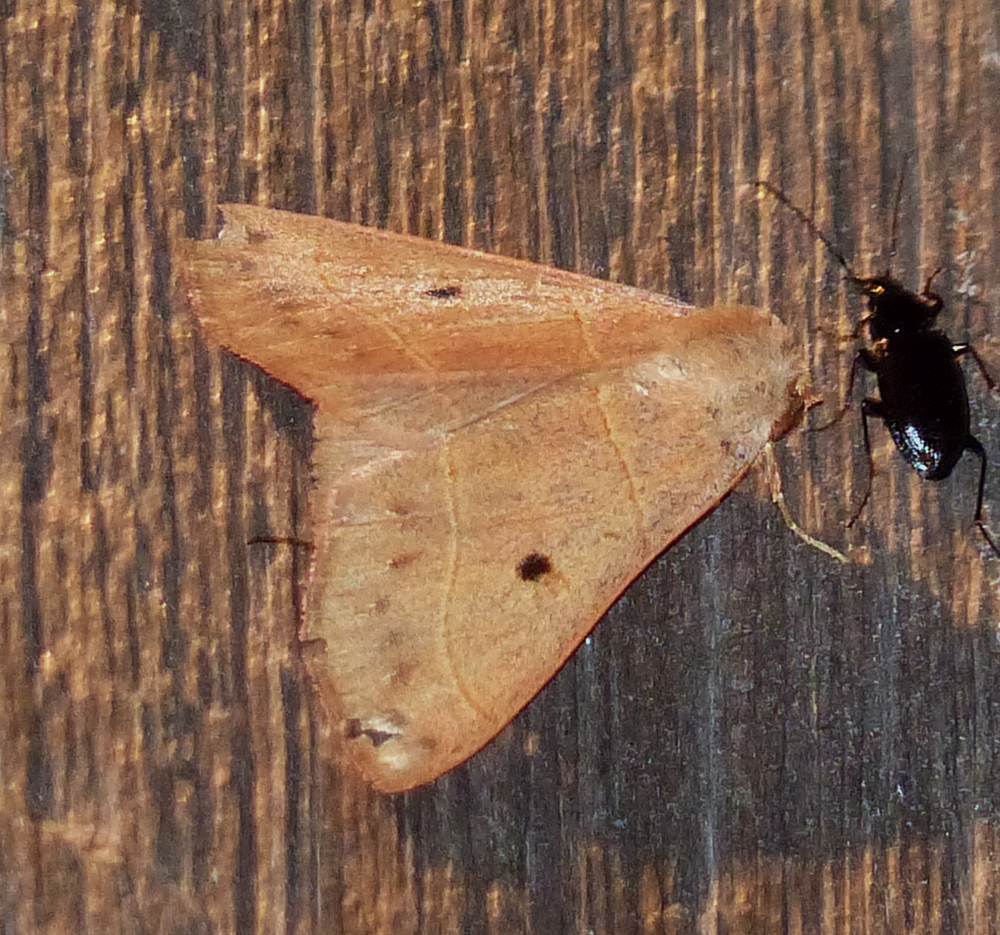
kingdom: Animalia
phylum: Arthropoda
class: Insecta
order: Lepidoptera
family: Erebidae
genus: Panopoda
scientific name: Panopoda rufimargo
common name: Red-lined panopoda moth
